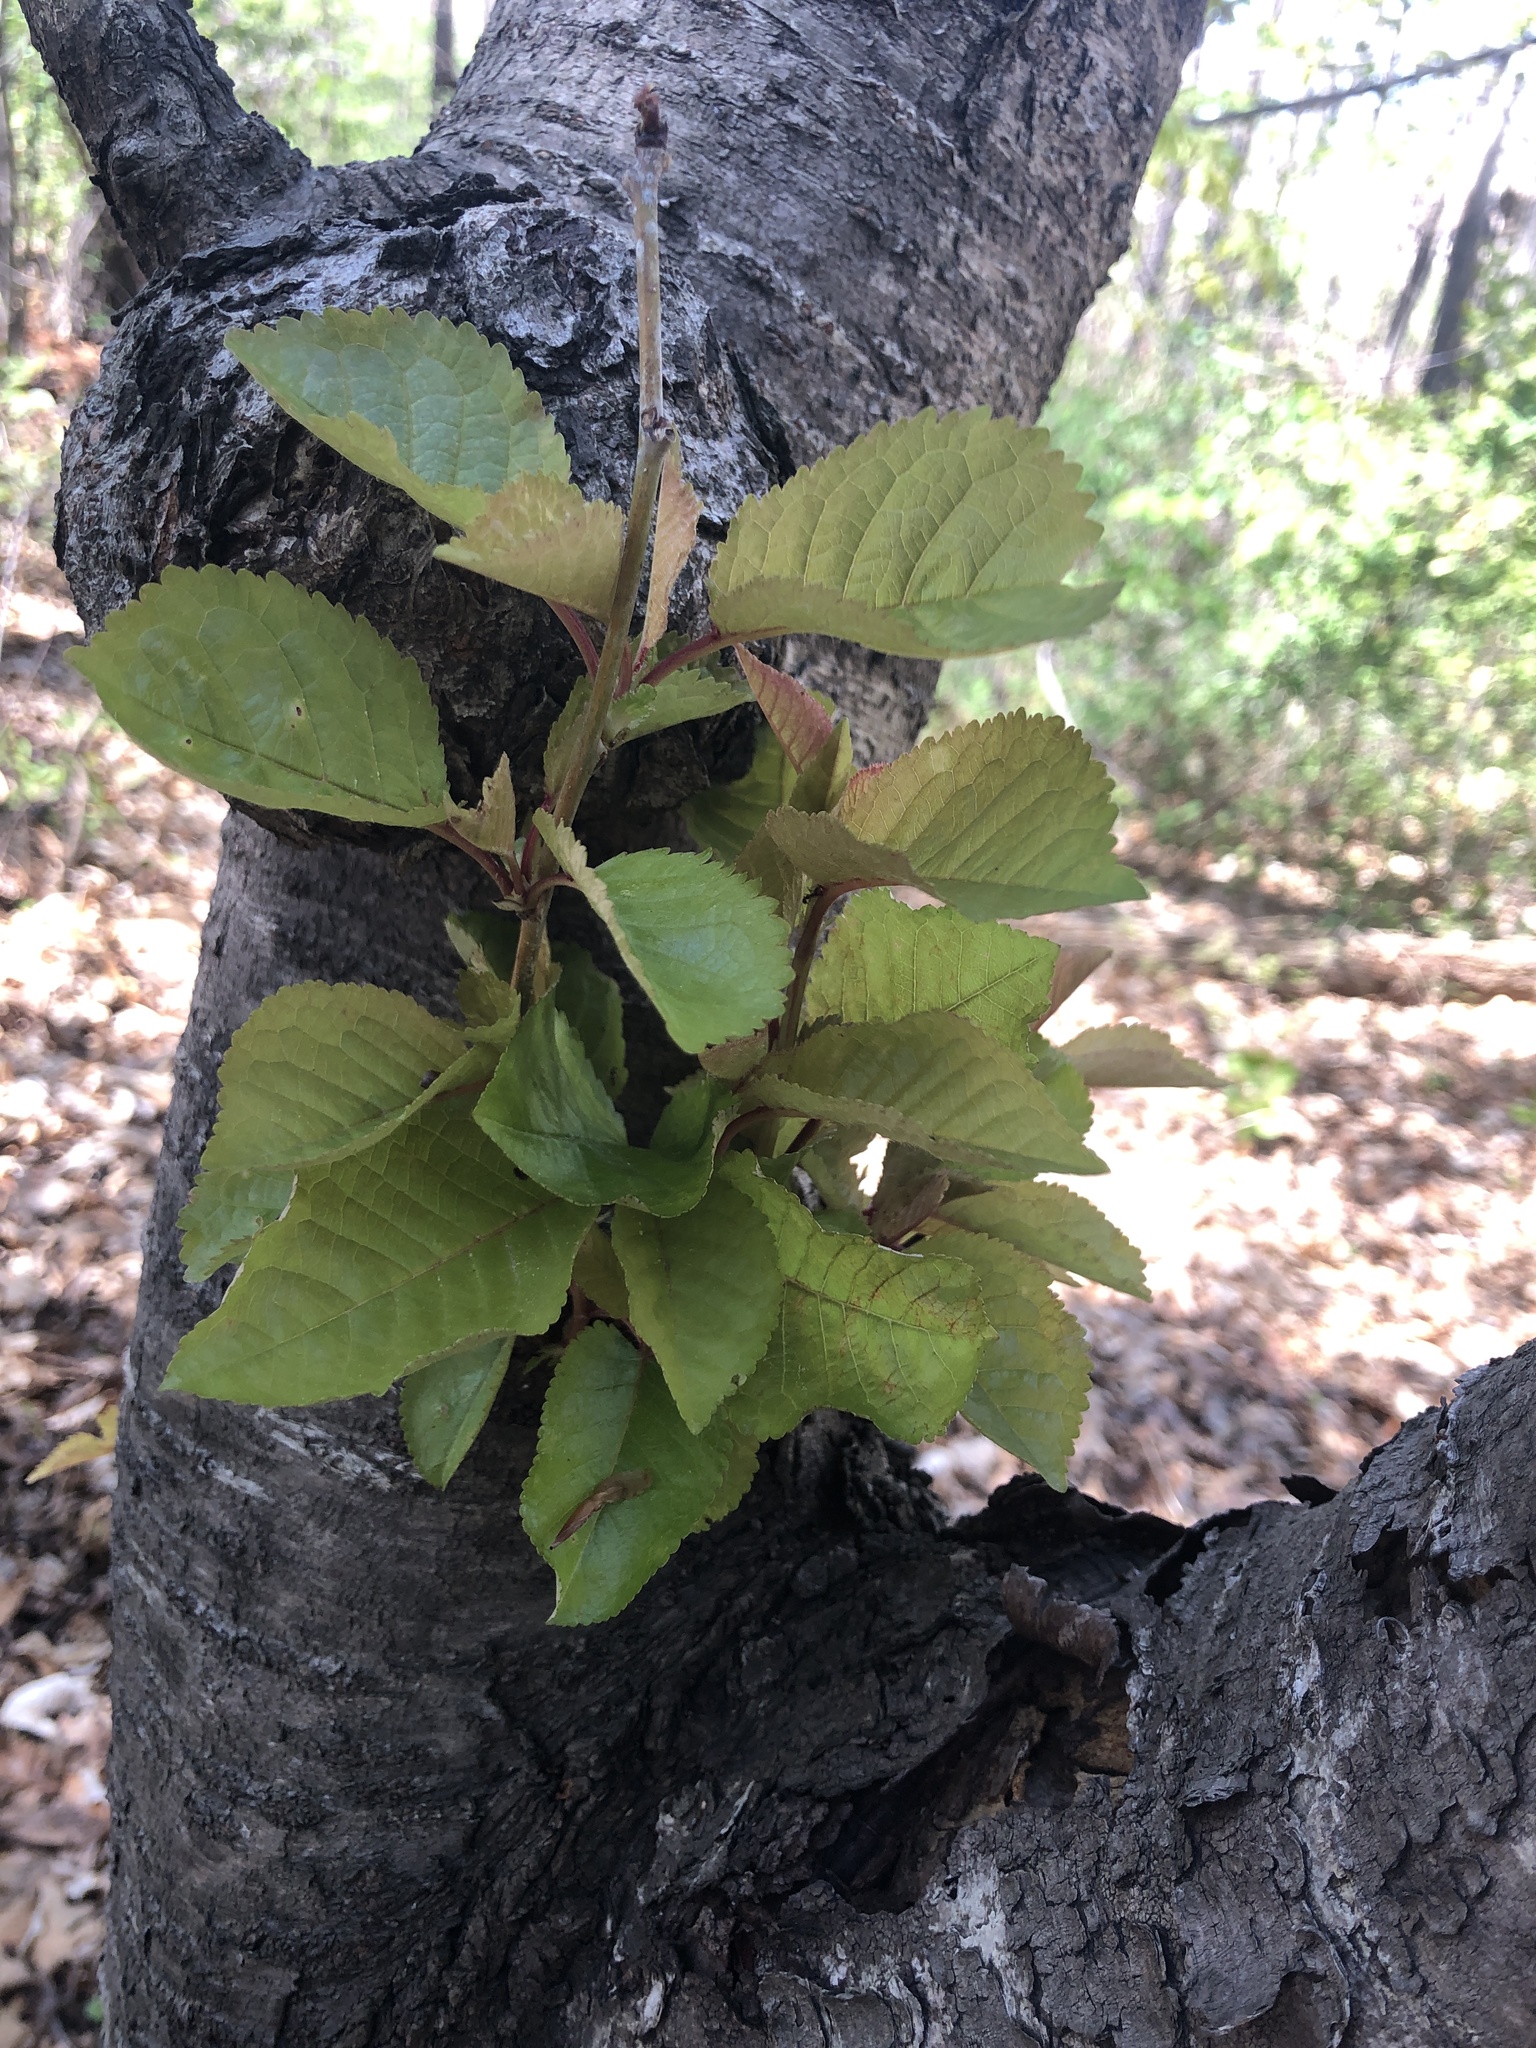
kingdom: Plantae
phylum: Tracheophyta
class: Magnoliopsida
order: Rosales
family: Rosaceae
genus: Prunus
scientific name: Prunus avium
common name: Sweet cherry
